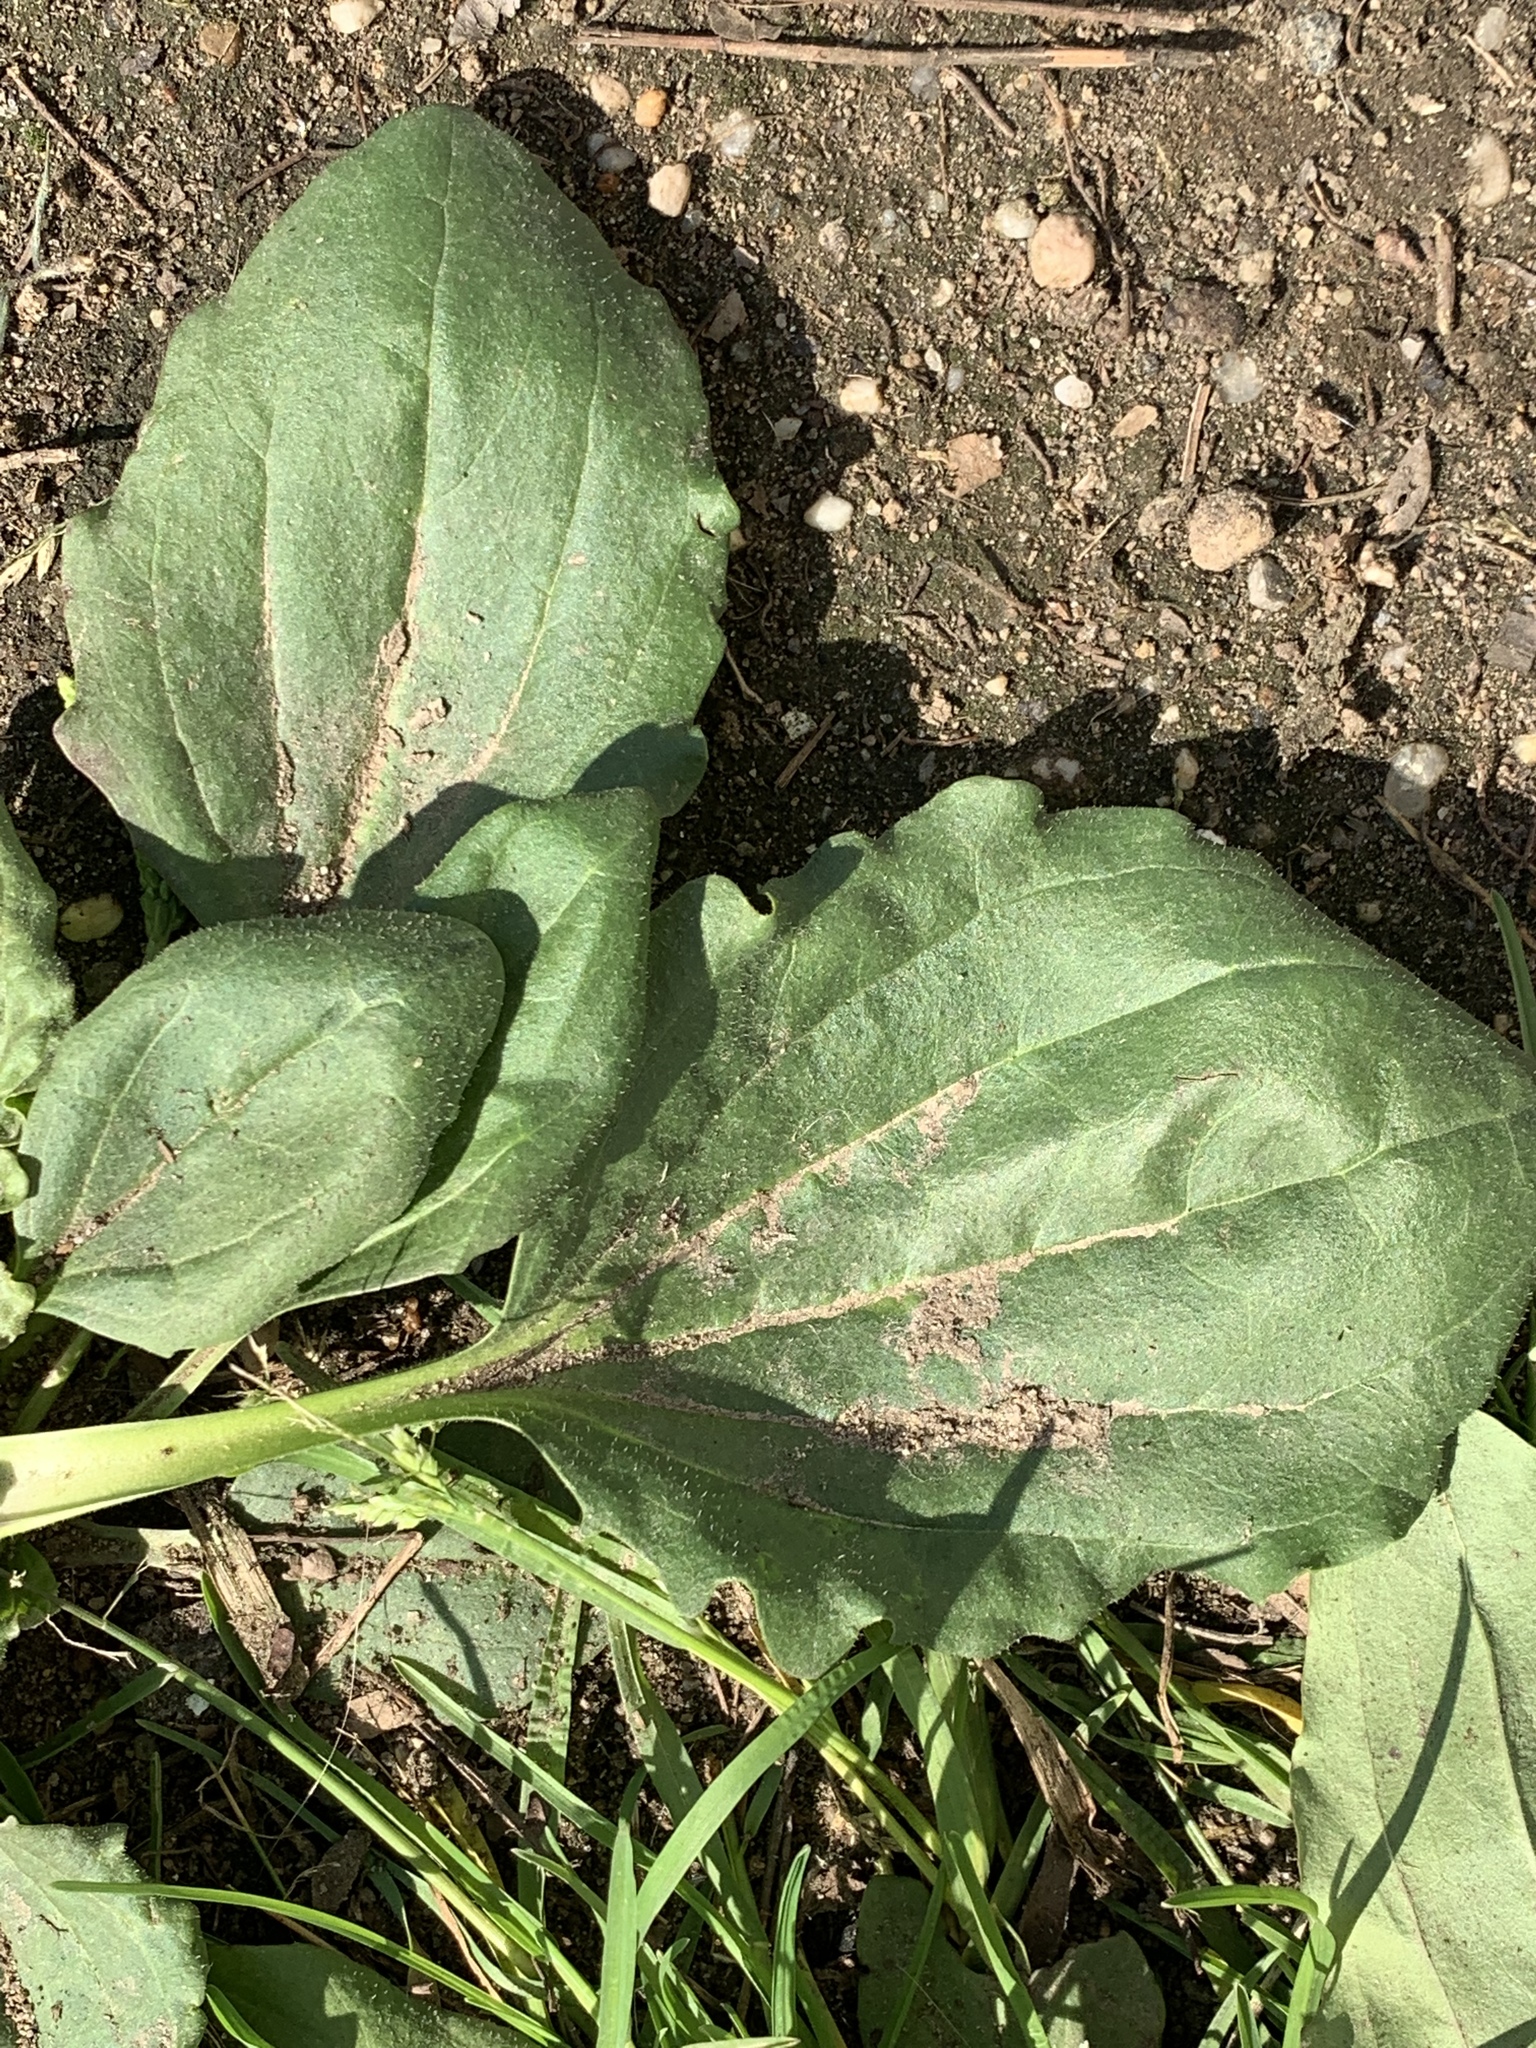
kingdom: Plantae
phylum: Tracheophyta
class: Magnoliopsida
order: Lamiales
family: Plantaginaceae
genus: Plantago
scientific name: Plantago major
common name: Common plantain
